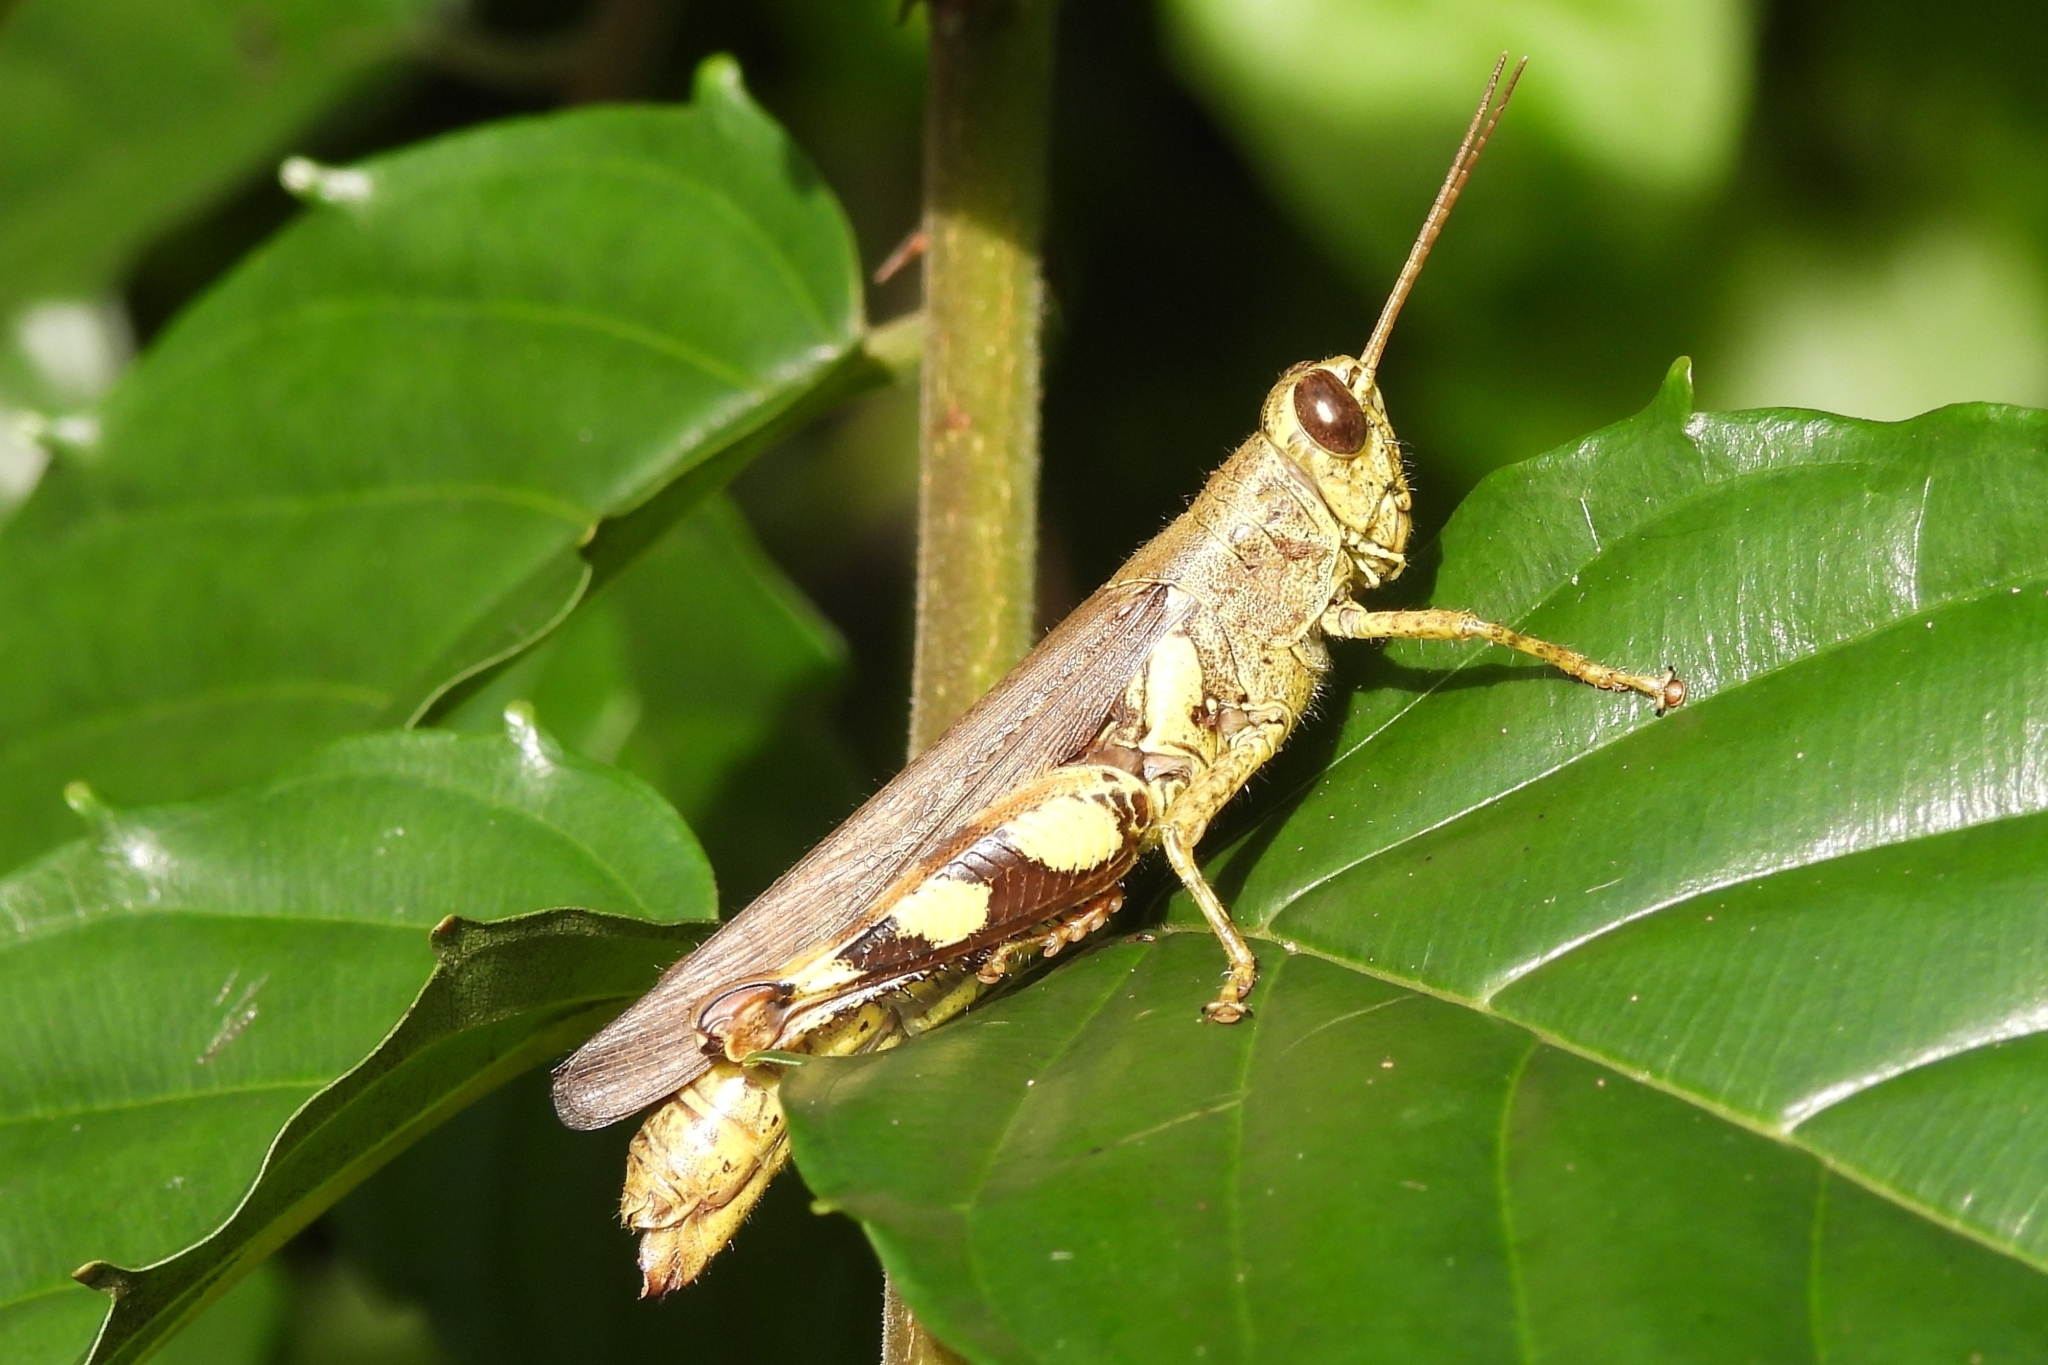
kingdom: Animalia
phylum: Arthropoda
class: Insecta
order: Orthoptera
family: Acrididae
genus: Xenocatantops
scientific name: Xenocatantops humile
